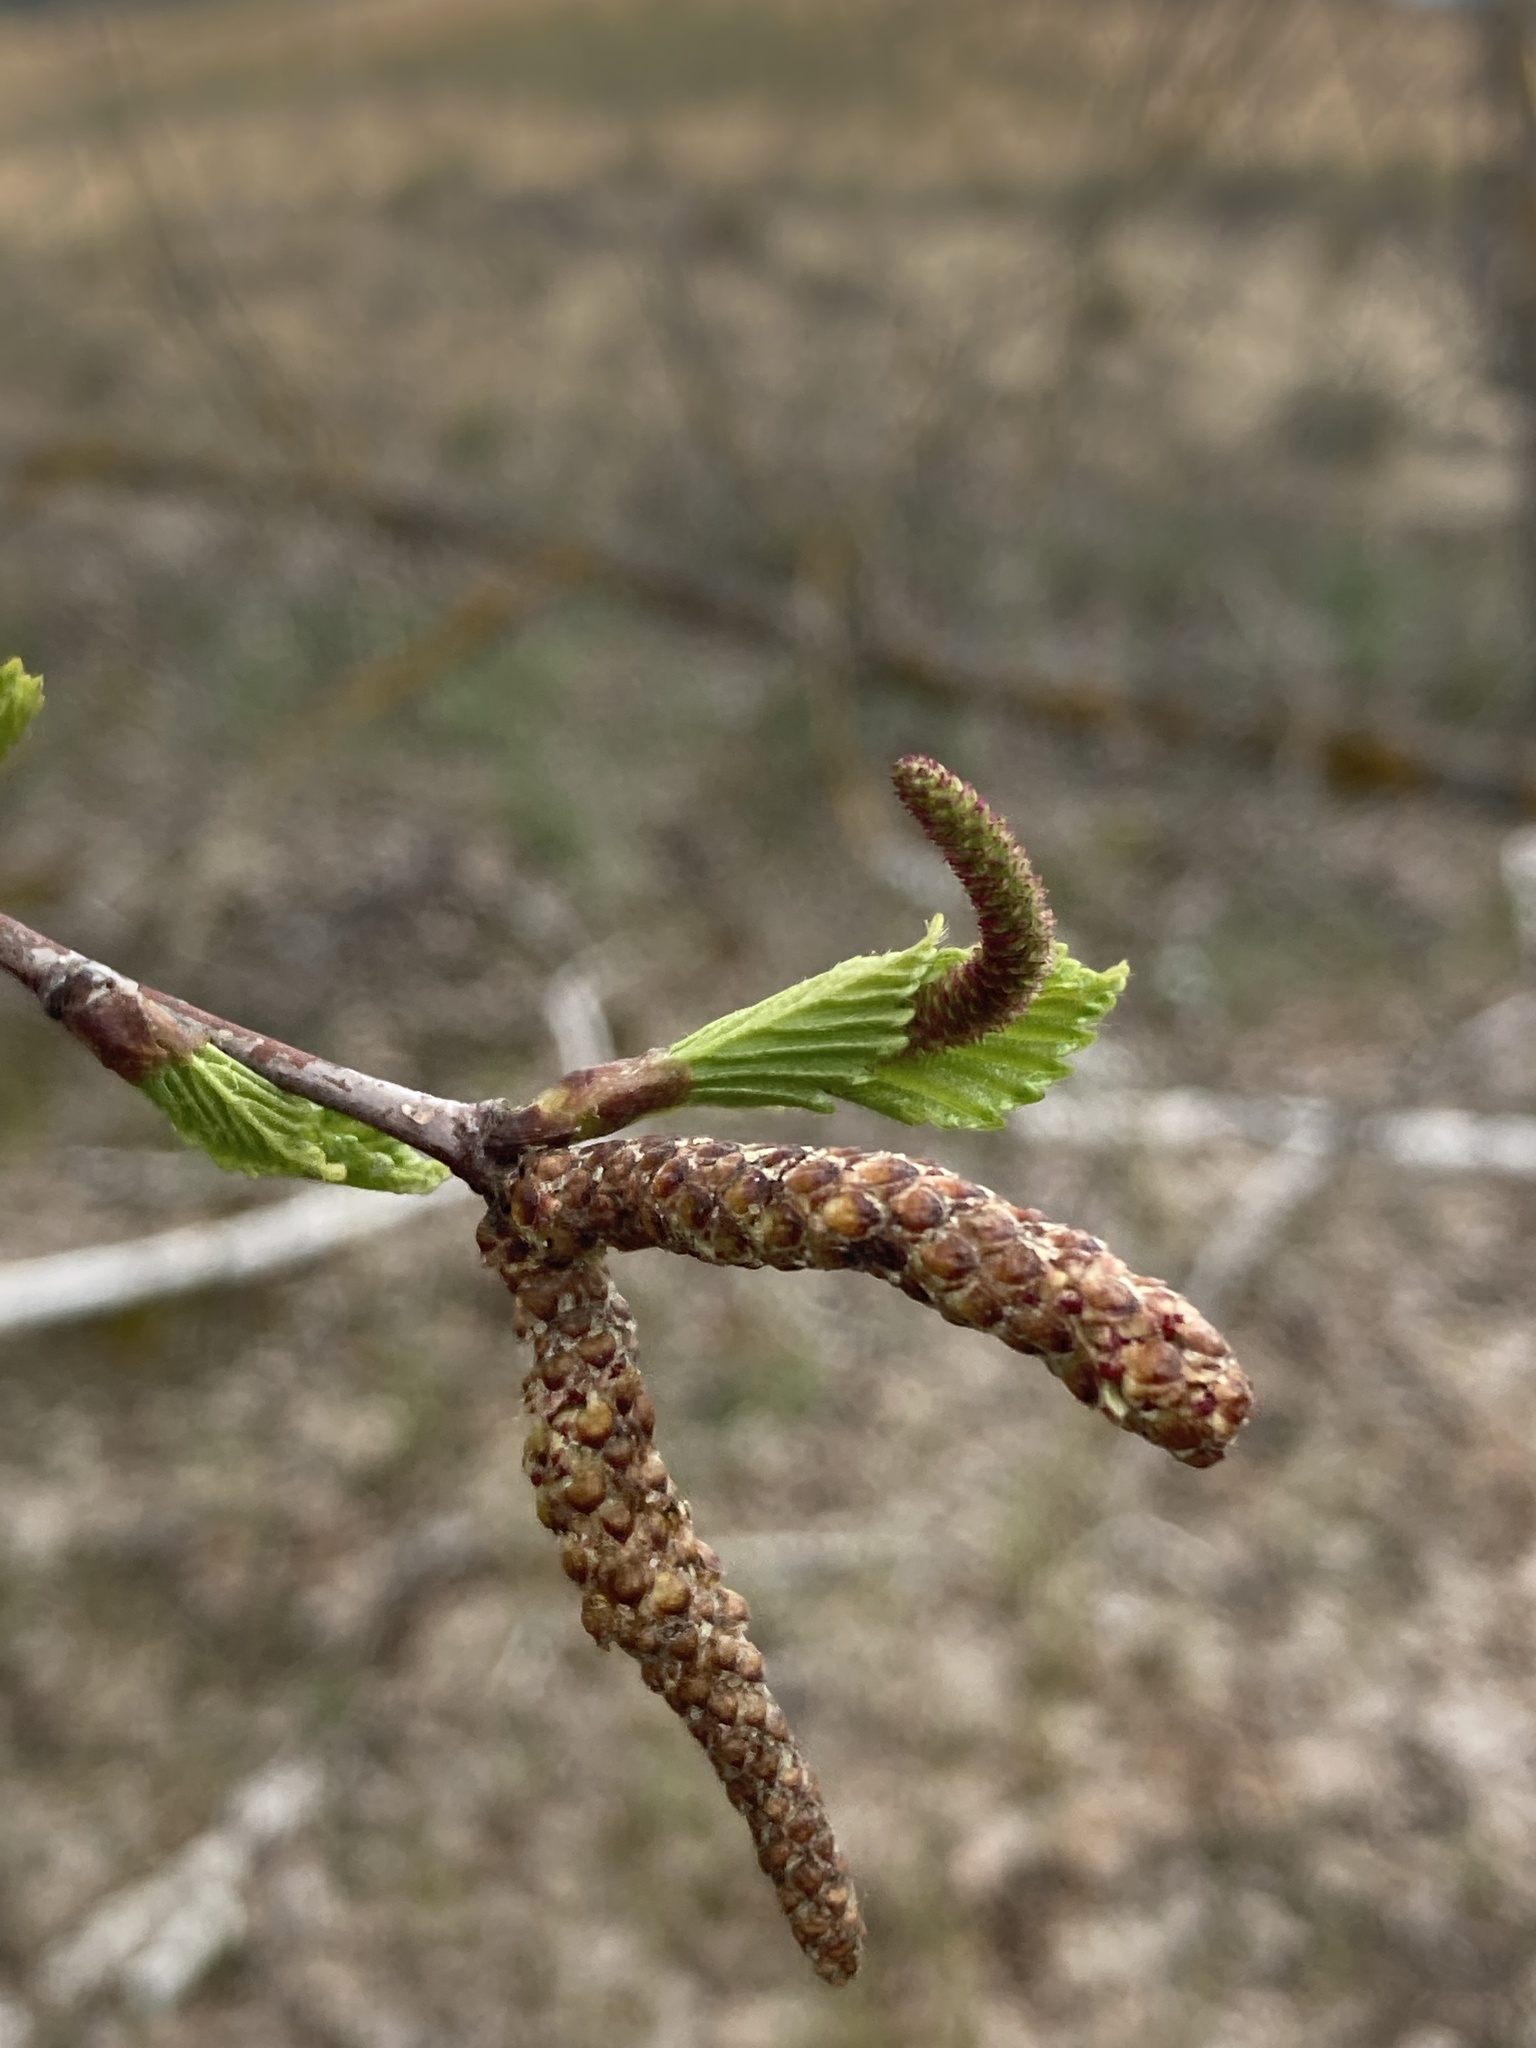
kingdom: Plantae
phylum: Tracheophyta
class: Magnoliopsida
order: Fagales
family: Betulaceae
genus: Betula
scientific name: Betula pendula
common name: Silver birch
